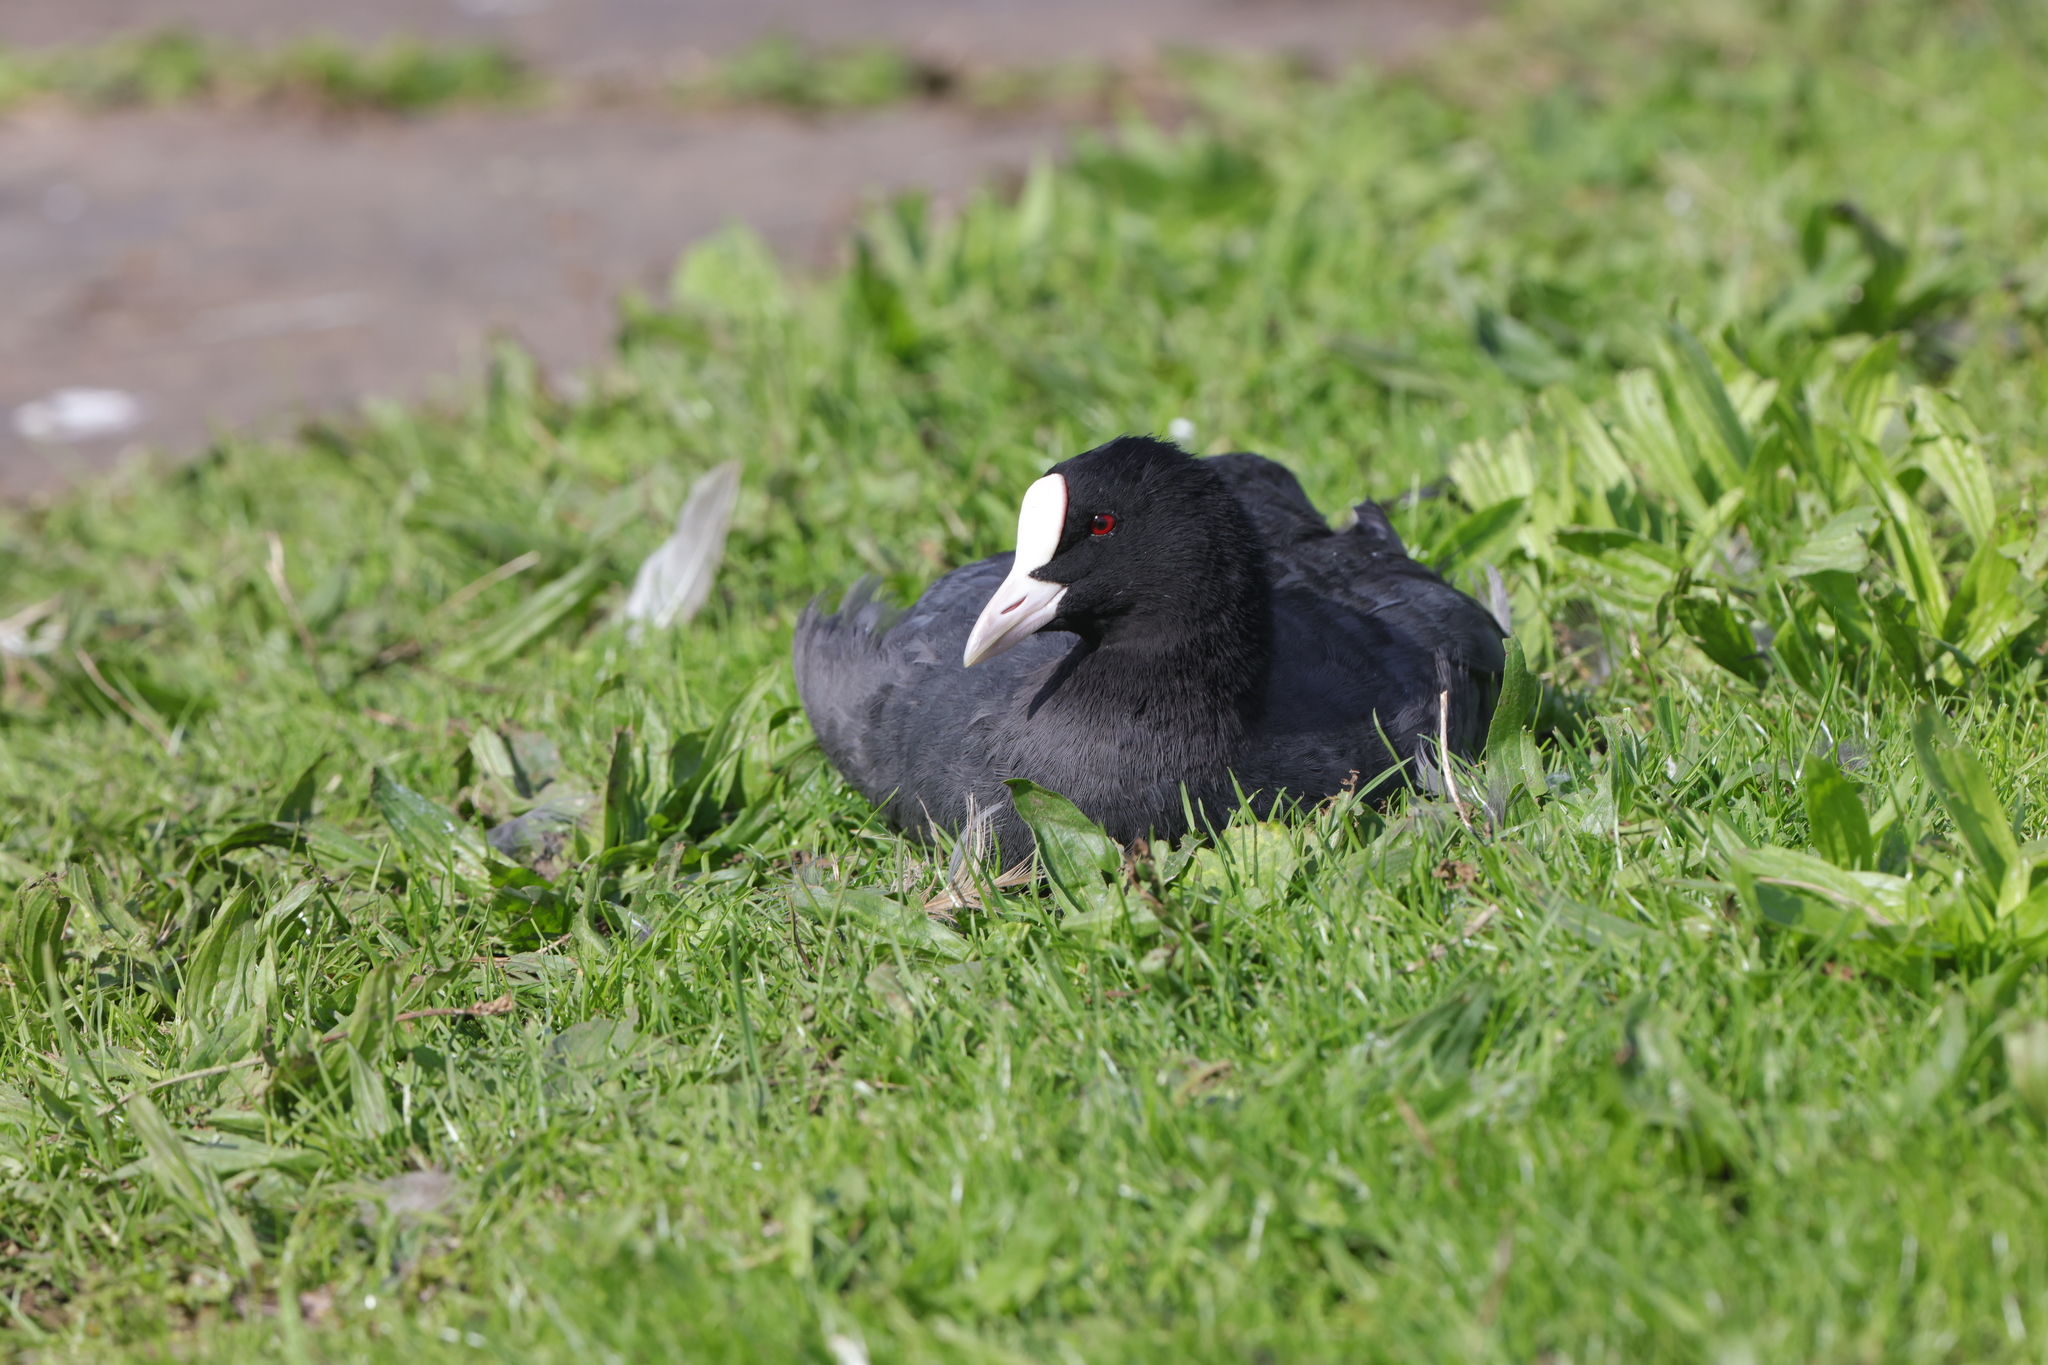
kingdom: Animalia
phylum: Chordata
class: Aves
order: Gruiformes
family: Rallidae
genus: Fulica
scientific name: Fulica atra
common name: Eurasian coot
